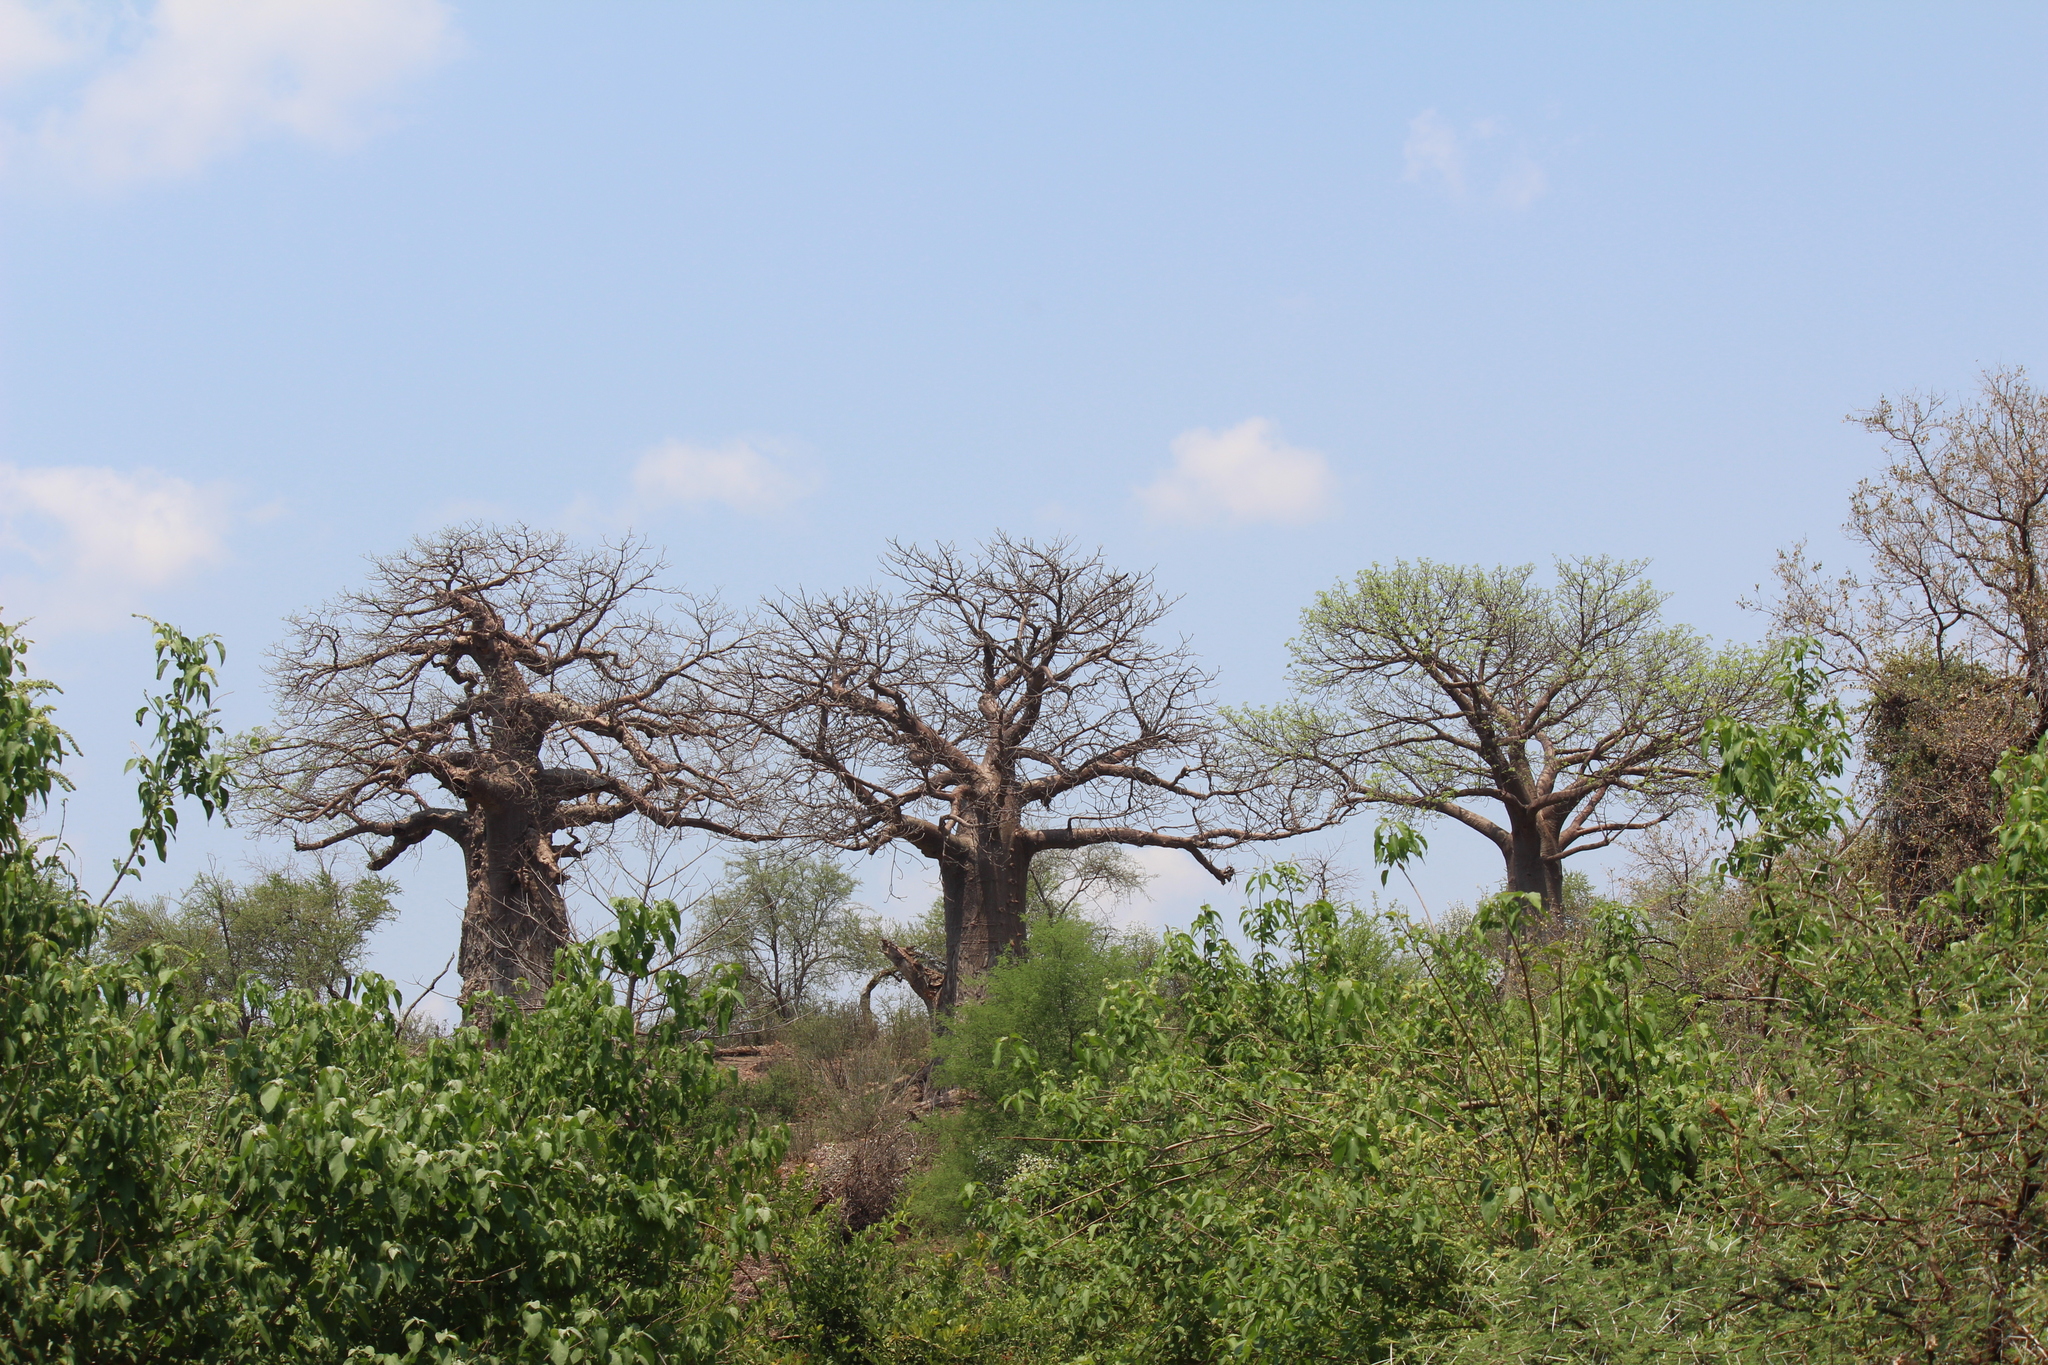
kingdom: Plantae
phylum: Tracheophyta
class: Magnoliopsida
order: Malvales
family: Malvaceae
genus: Adansonia
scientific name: Adansonia digitata
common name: Dead-rat-tree
